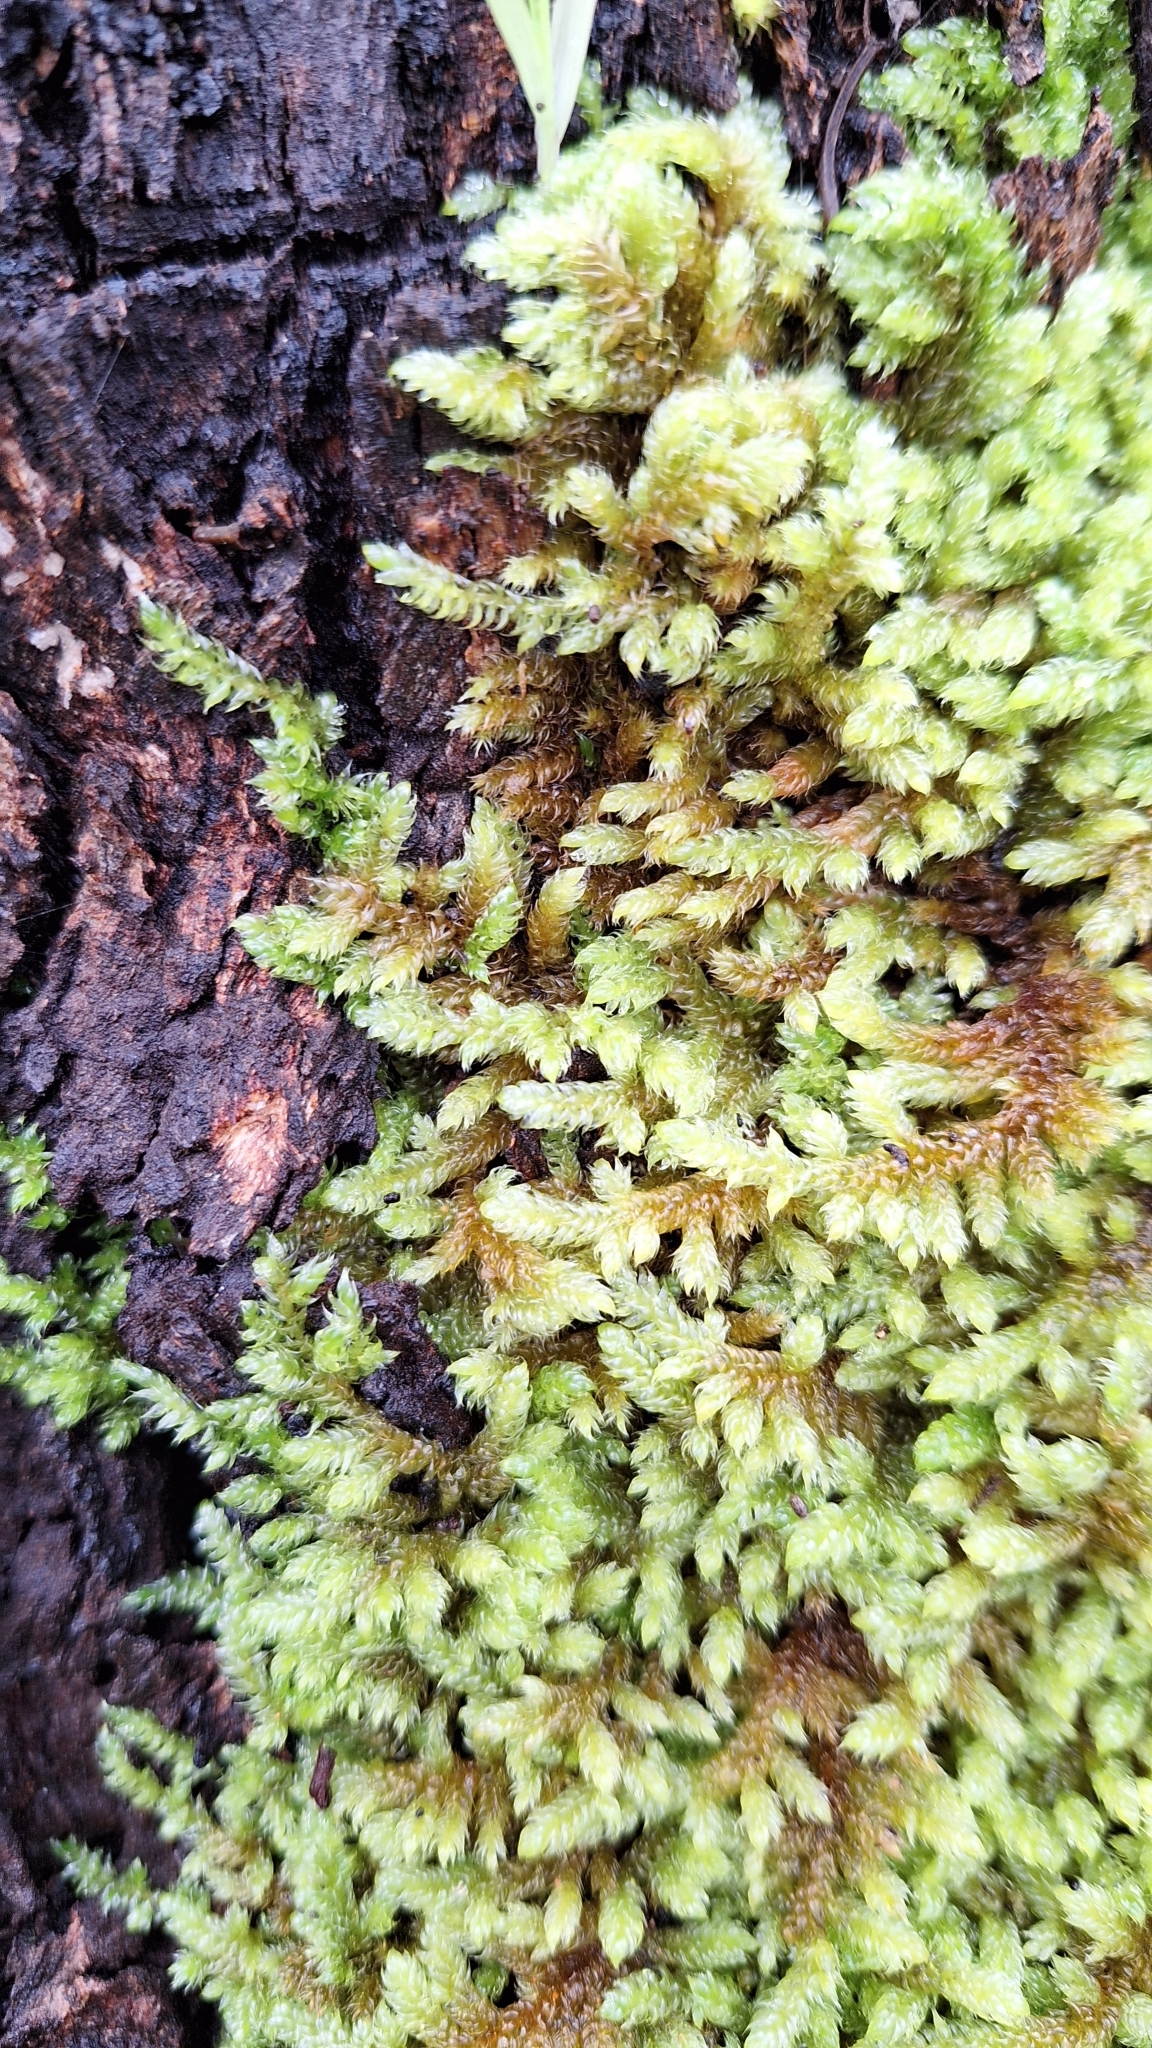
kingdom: Plantae
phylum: Bryophyta
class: Bryopsida
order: Hypnales
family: Hypnaceae
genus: Hypnum
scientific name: Hypnum cupressiforme
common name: Cypress-leaved plait-moss
